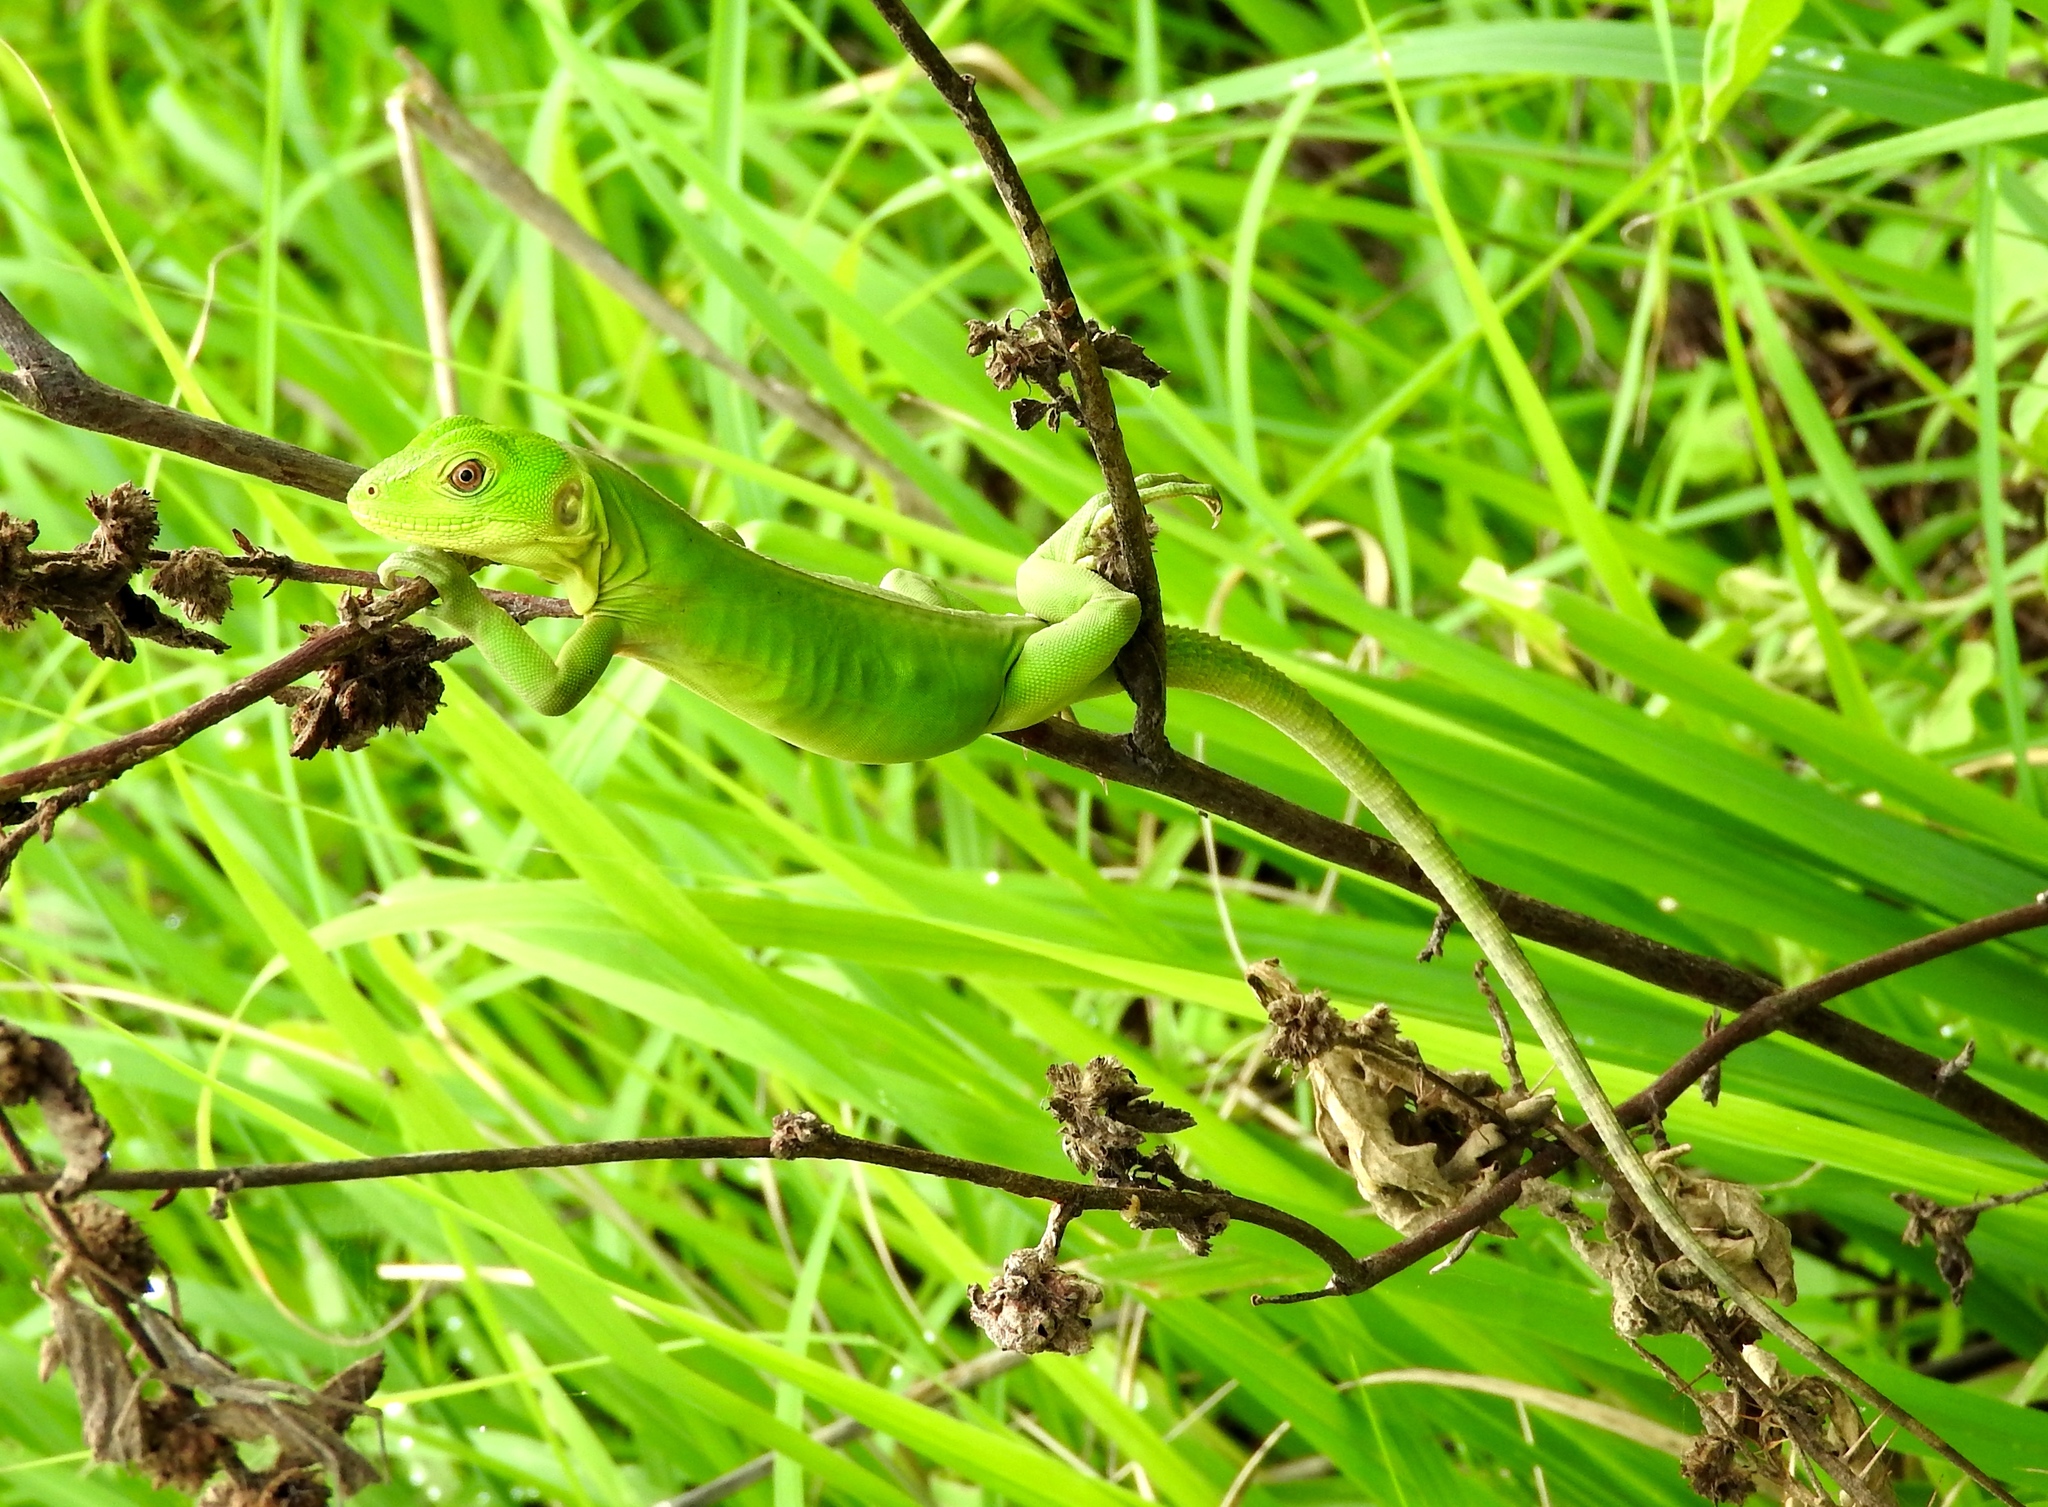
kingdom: Animalia
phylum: Chordata
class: Squamata
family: Iguanidae
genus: Ctenosaura
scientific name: Ctenosaura pectinata
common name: Guerreran spiny-tailed iguana
